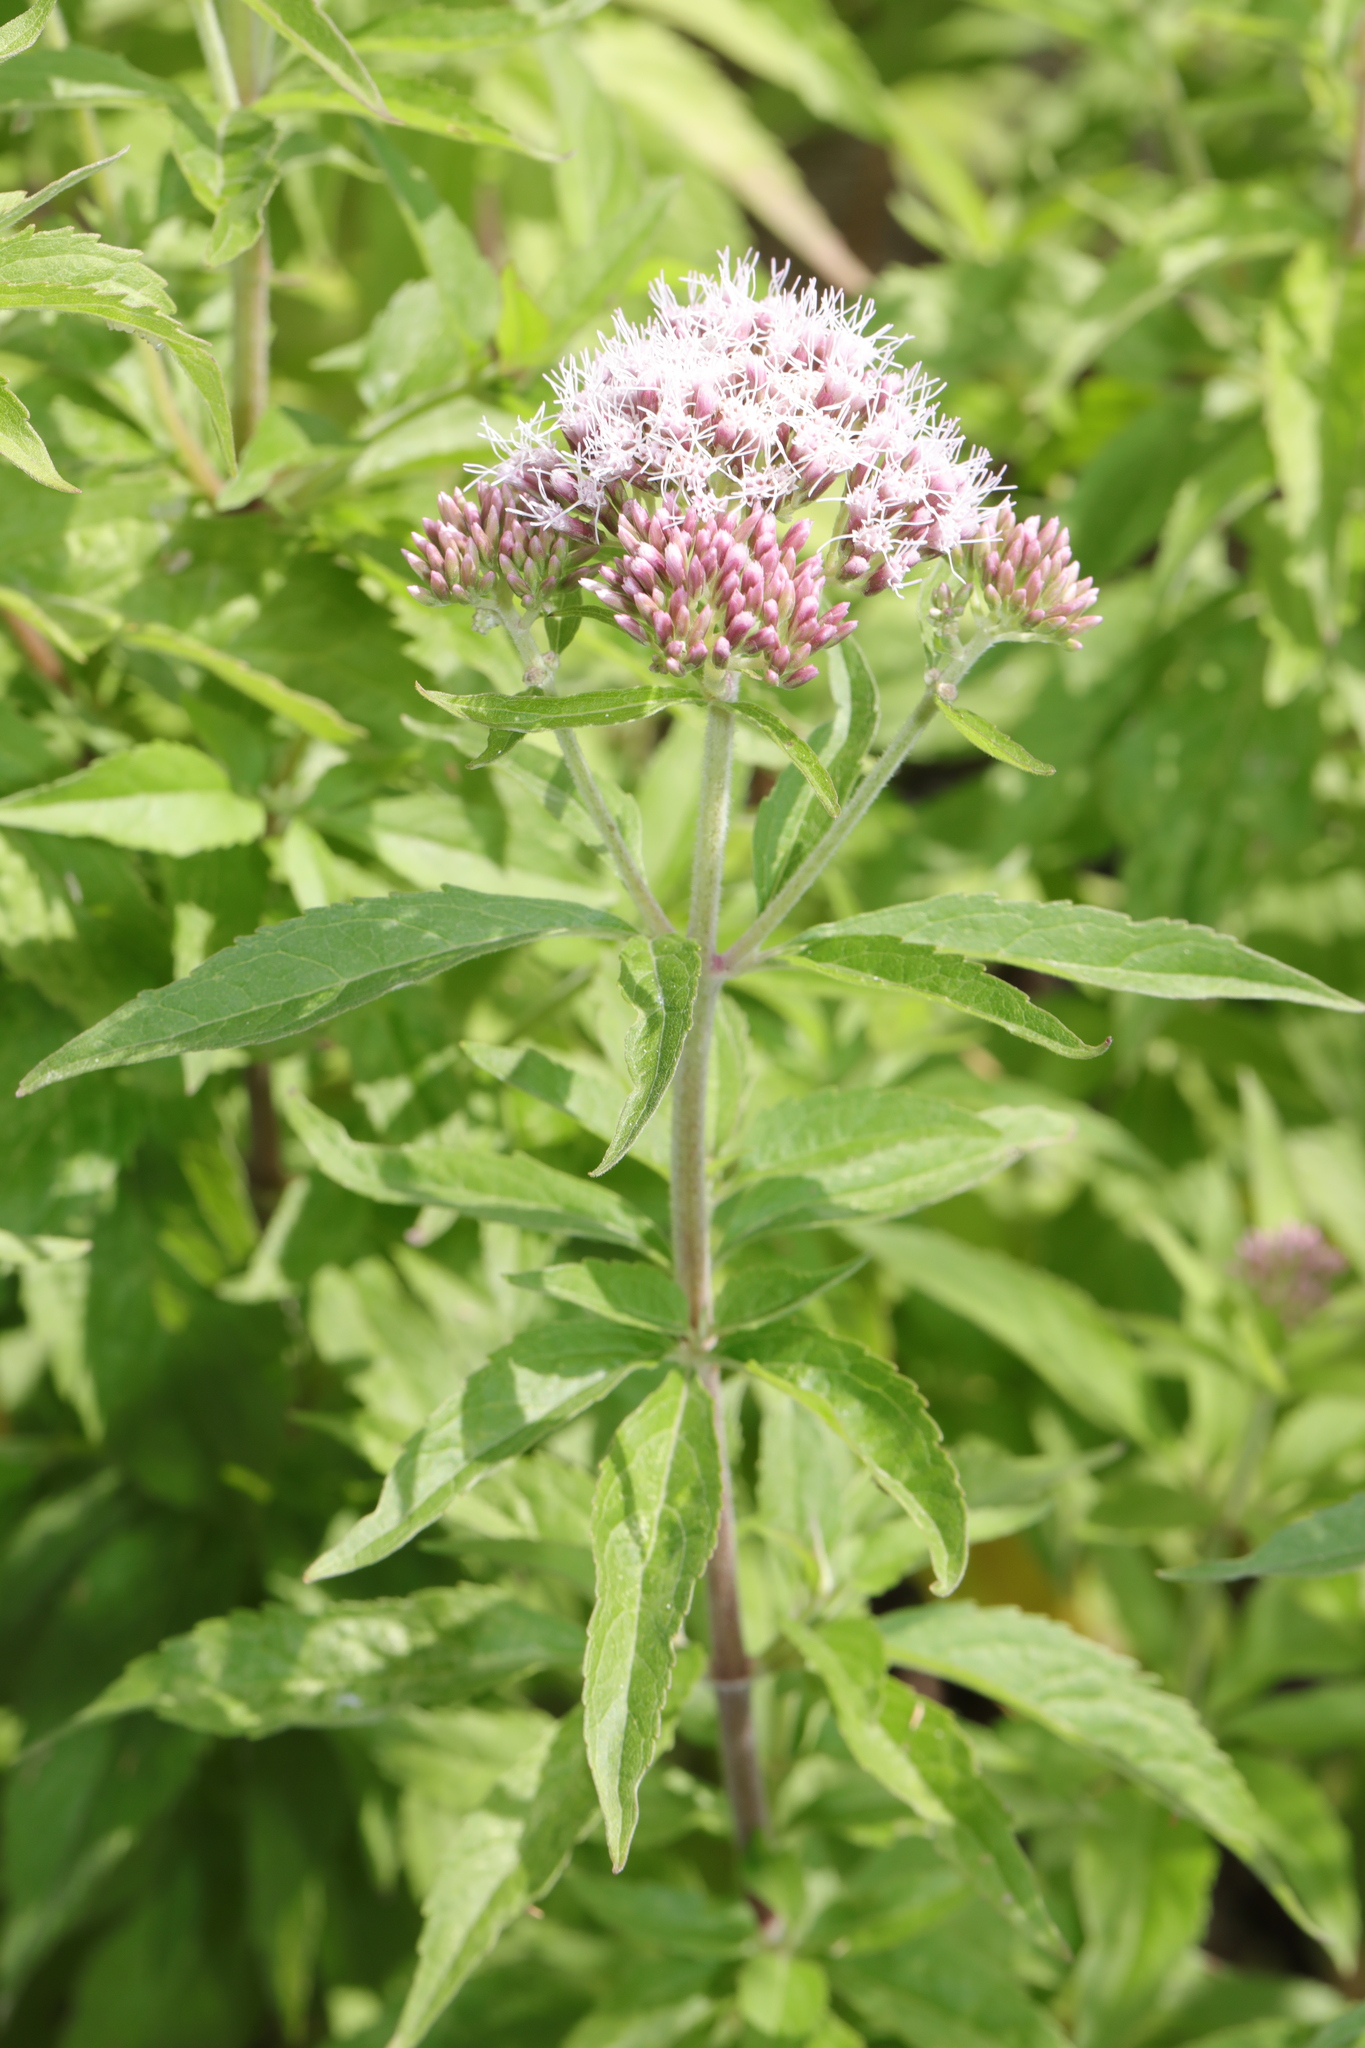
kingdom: Plantae
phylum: Tracheophyta
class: Magnoliopsida
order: Asterales
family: Asteraceae
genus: Eupatorium
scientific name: Eupatorium cannabinum
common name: Hemp-agrimony
